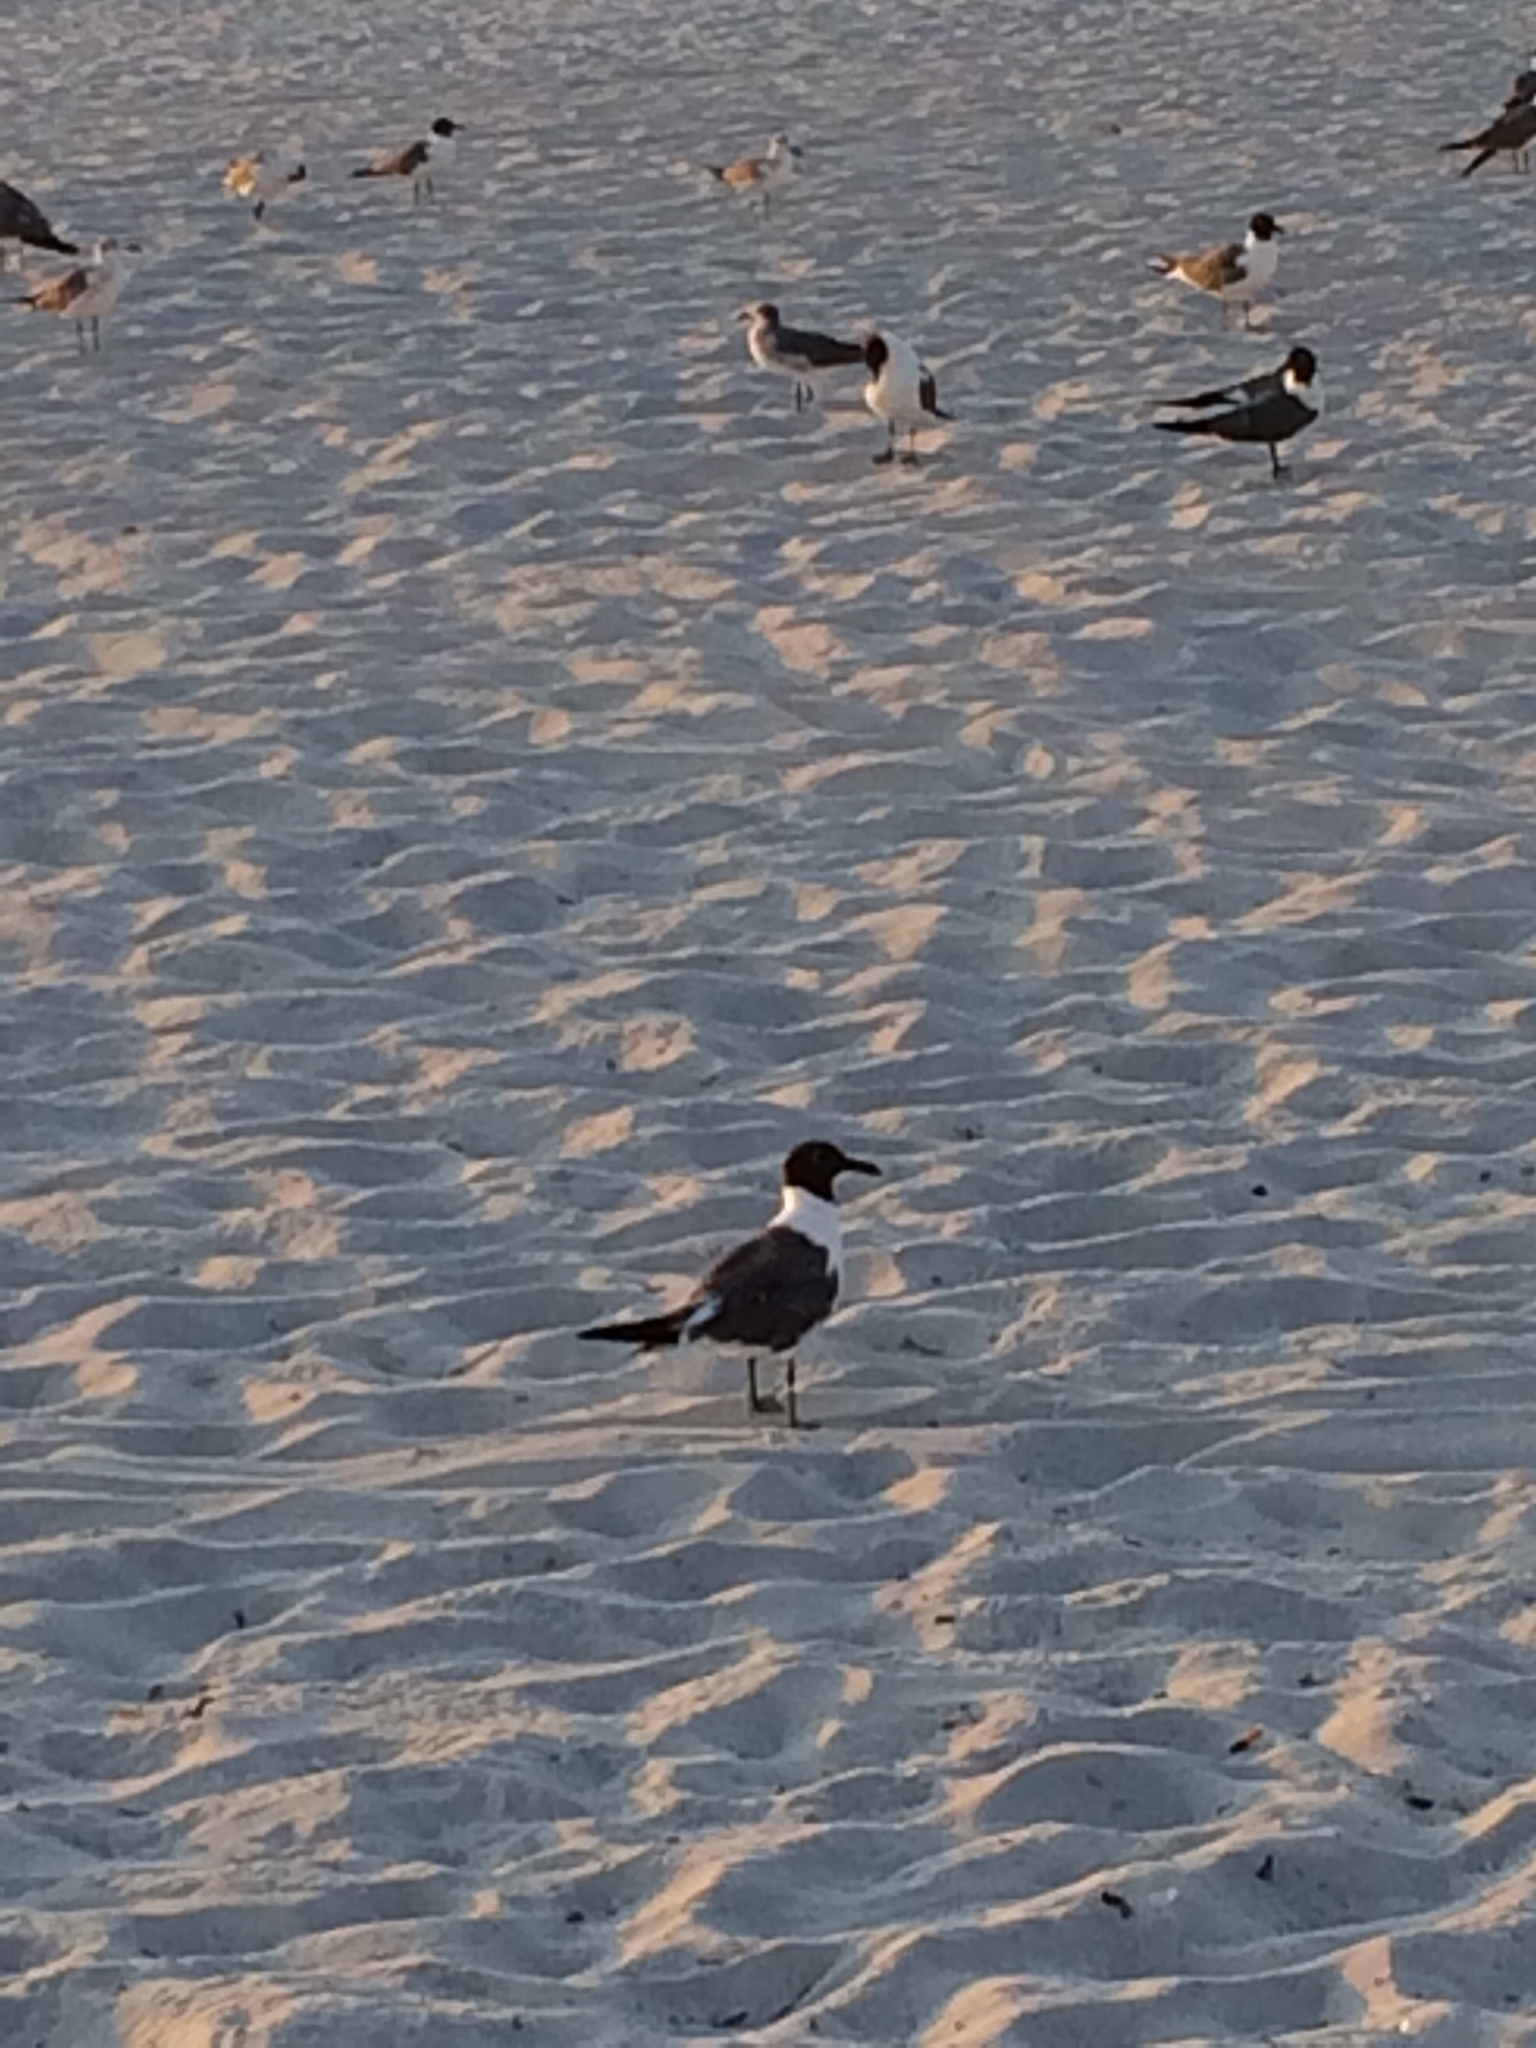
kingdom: Animalia
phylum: Chordata
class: Aves
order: Charadriiformes
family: Laridae
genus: Leucophaeus
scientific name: Leucophaeus atricilla
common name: Laughing gull
